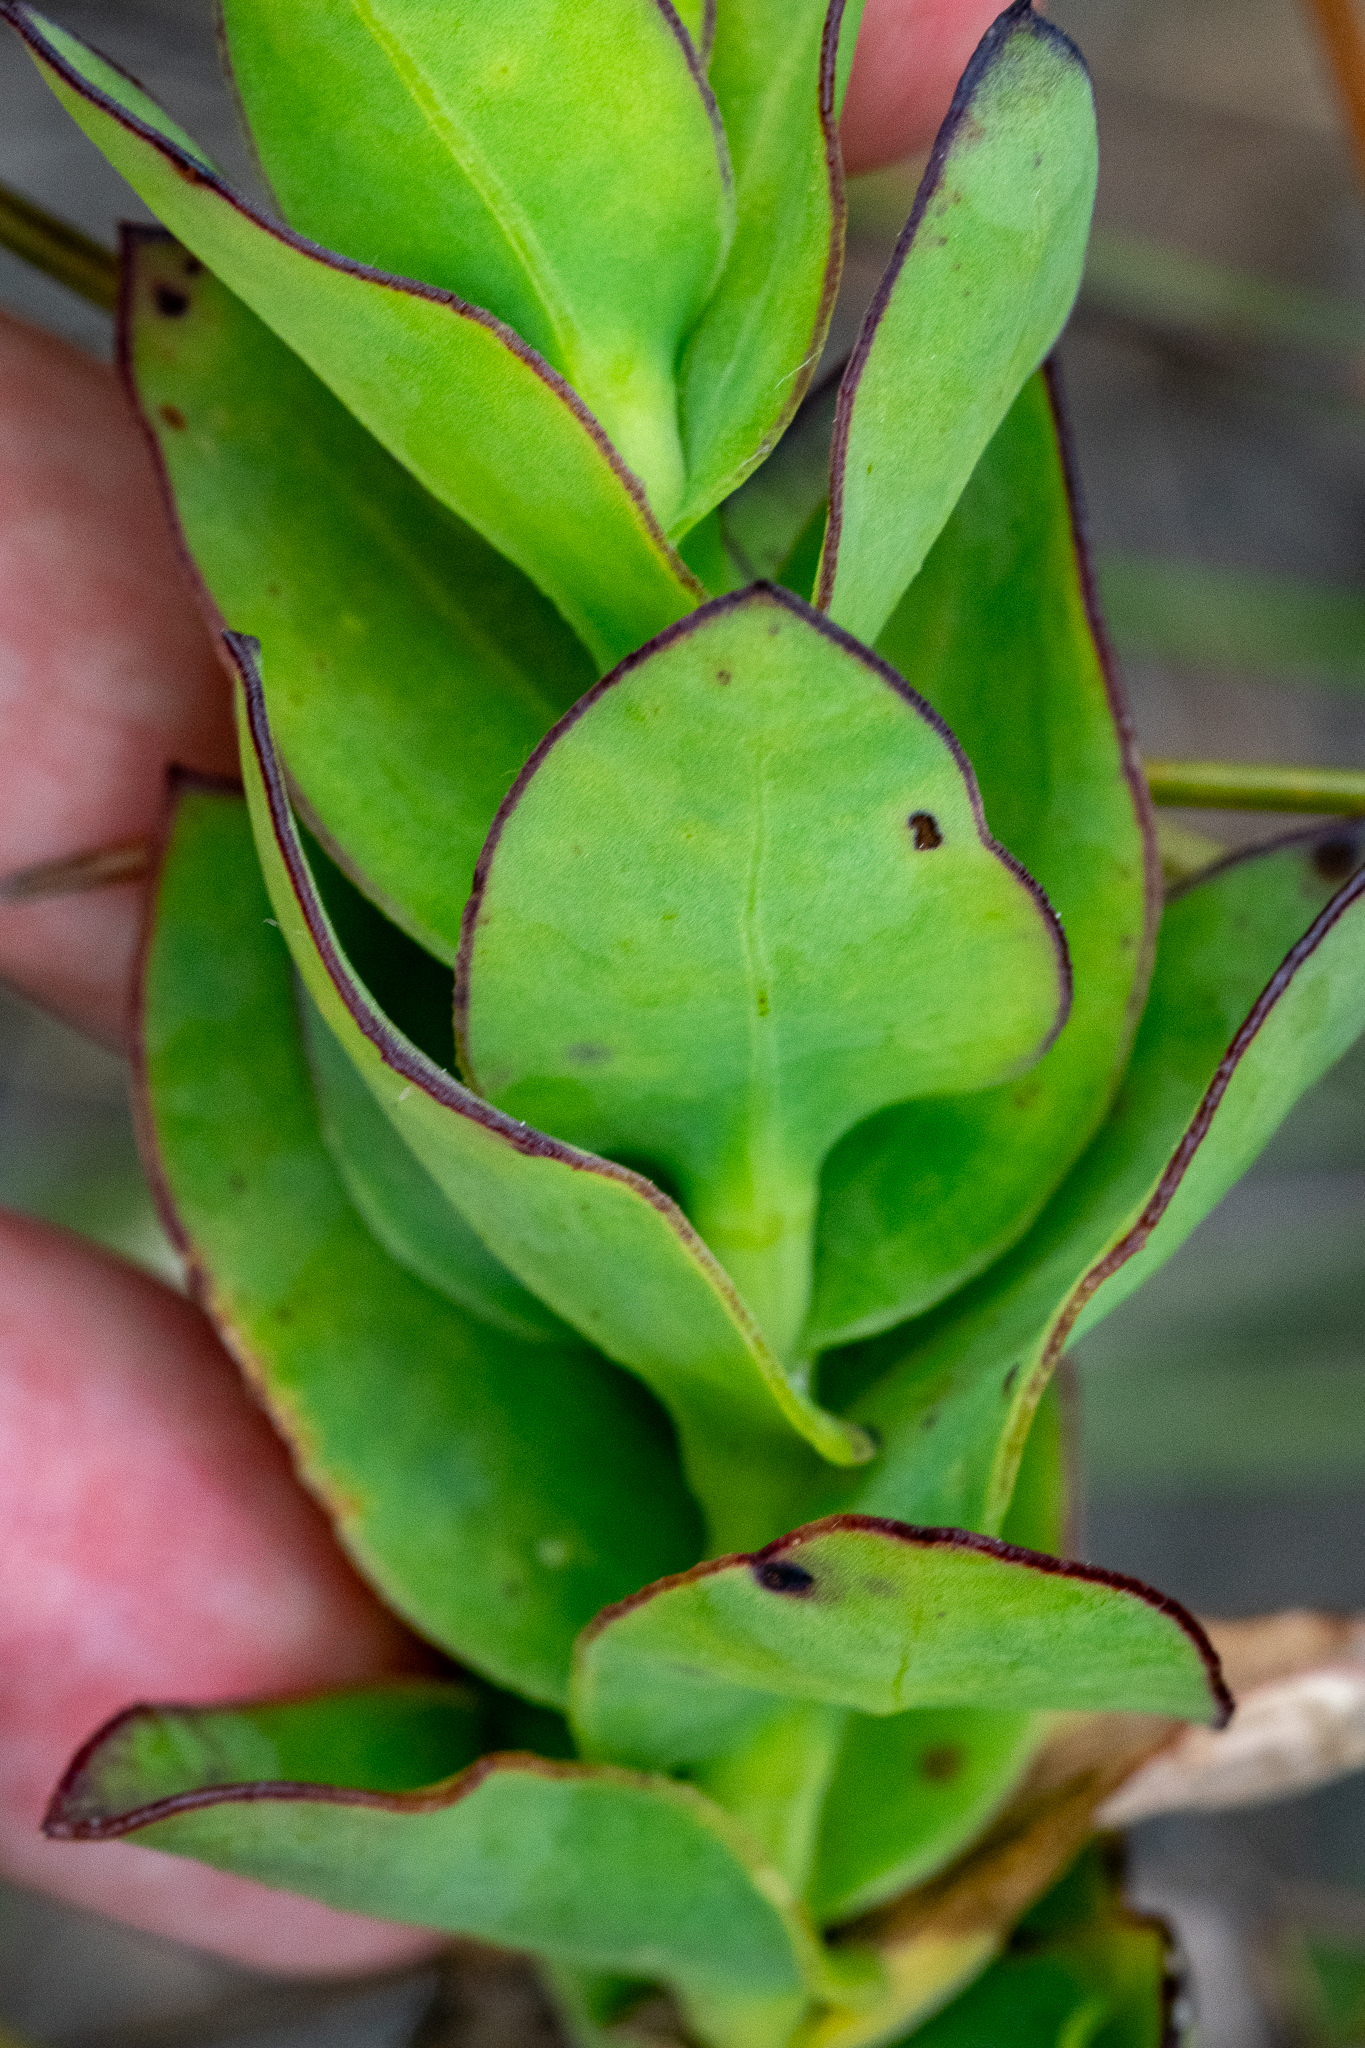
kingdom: Plantae
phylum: Tracheophyta
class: Magnoliopsida
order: Asterales
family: Asteraceae
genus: Osteospermum
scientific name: Osteospermum rotundifolium
